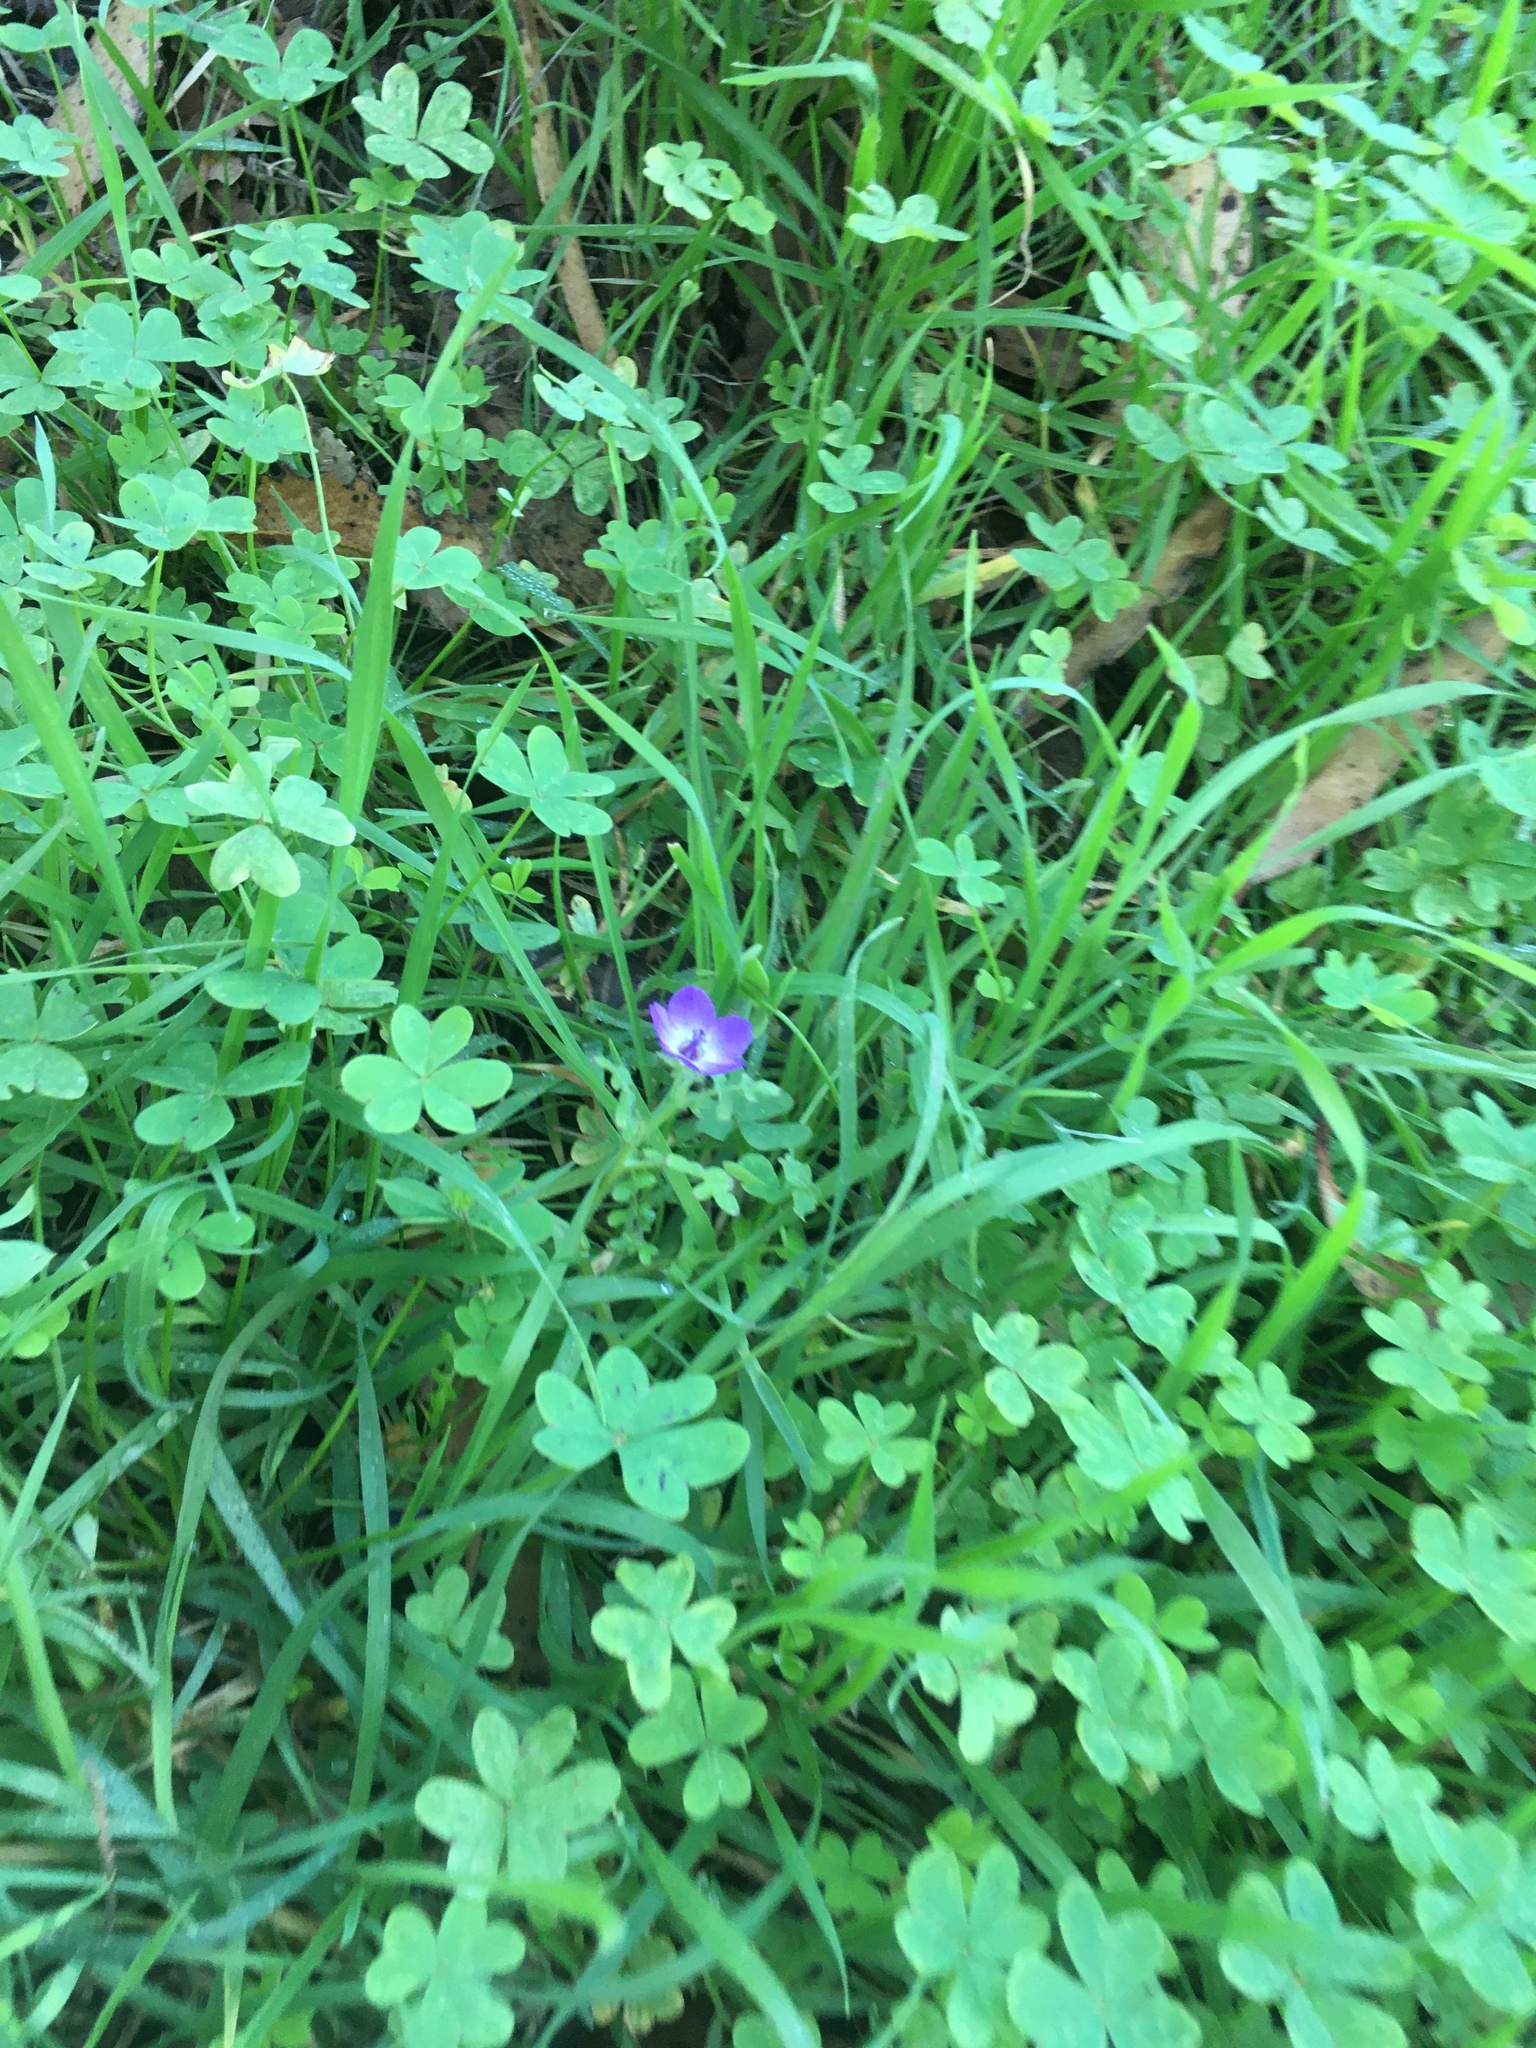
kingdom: Plantae
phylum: Tracheophyta
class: Magnoliopsida
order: Boraginales
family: Hydrophyllaceae
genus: Pholistoma
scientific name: Pholistoma auritum
